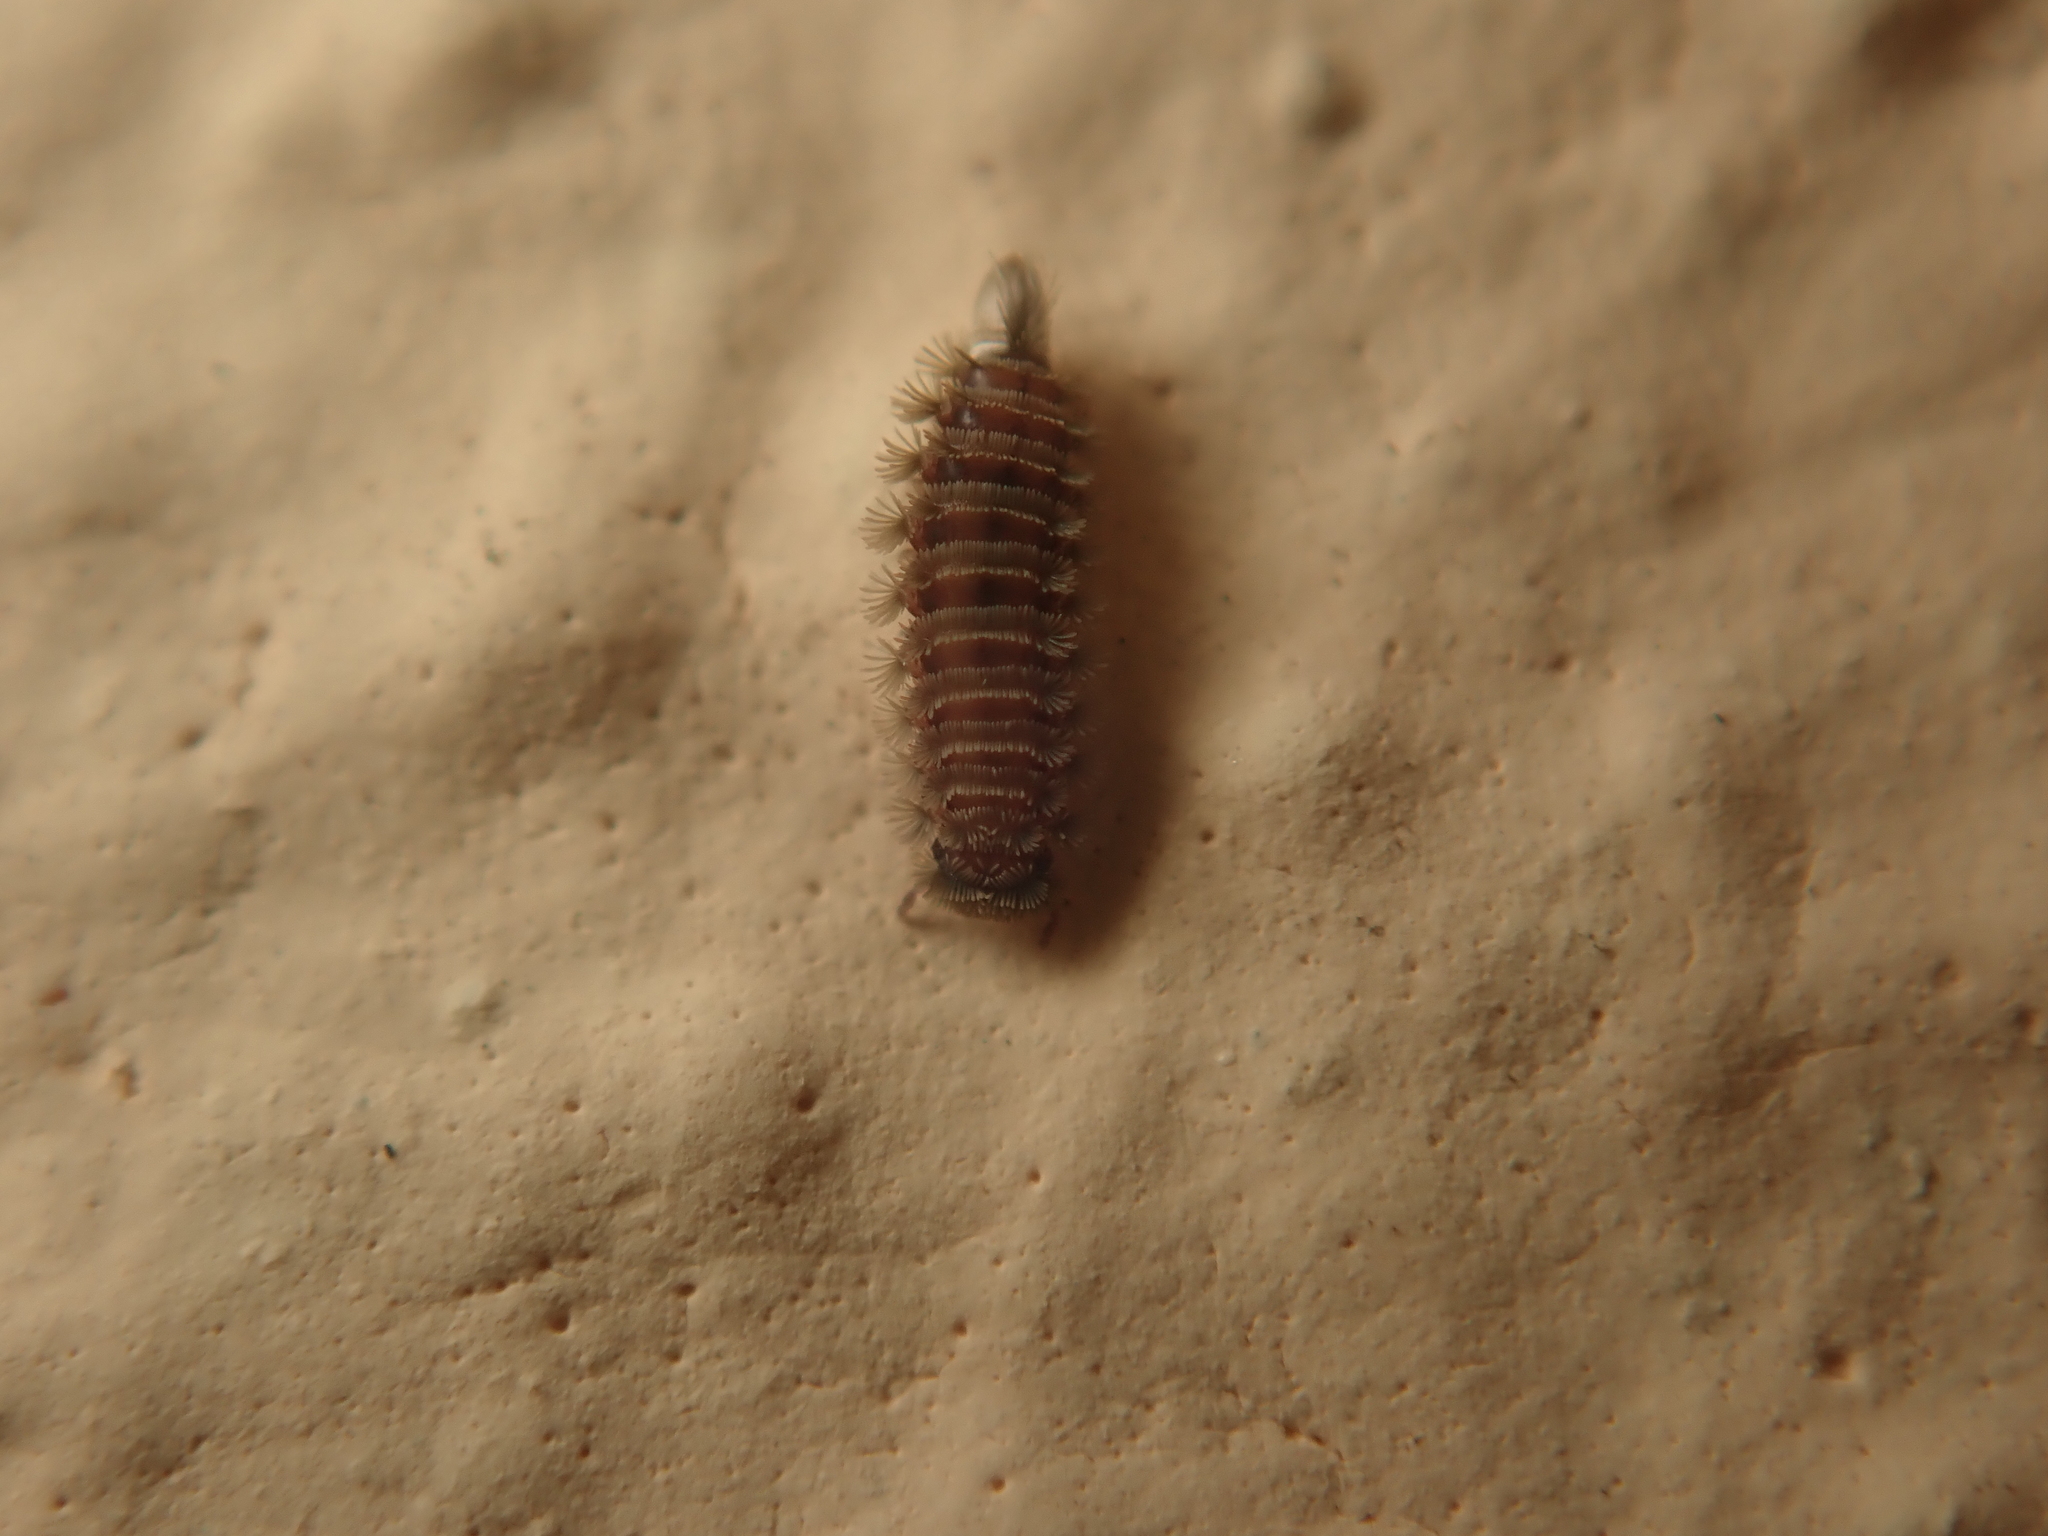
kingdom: Animalia
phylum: Arthropoda
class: Diplopoda
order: Polyxenida
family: Polyxenidae
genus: Polyxenus
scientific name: Polyxenus lagurus
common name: Bristly millipede
